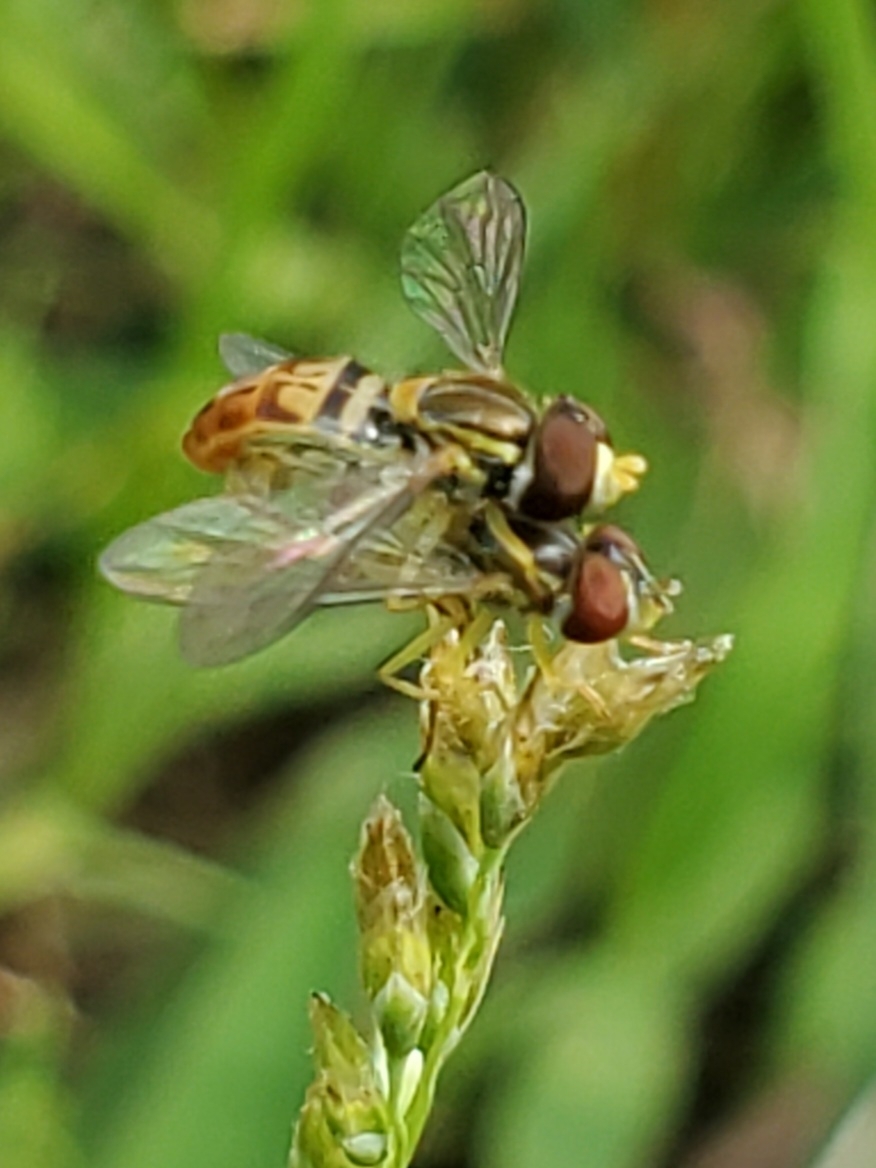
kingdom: Animalia
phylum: Arthropoda
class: Insecta
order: Diptera
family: Syrphidae
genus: Toxomerus
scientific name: Toxomerus marginatus
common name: Syrphid fly
